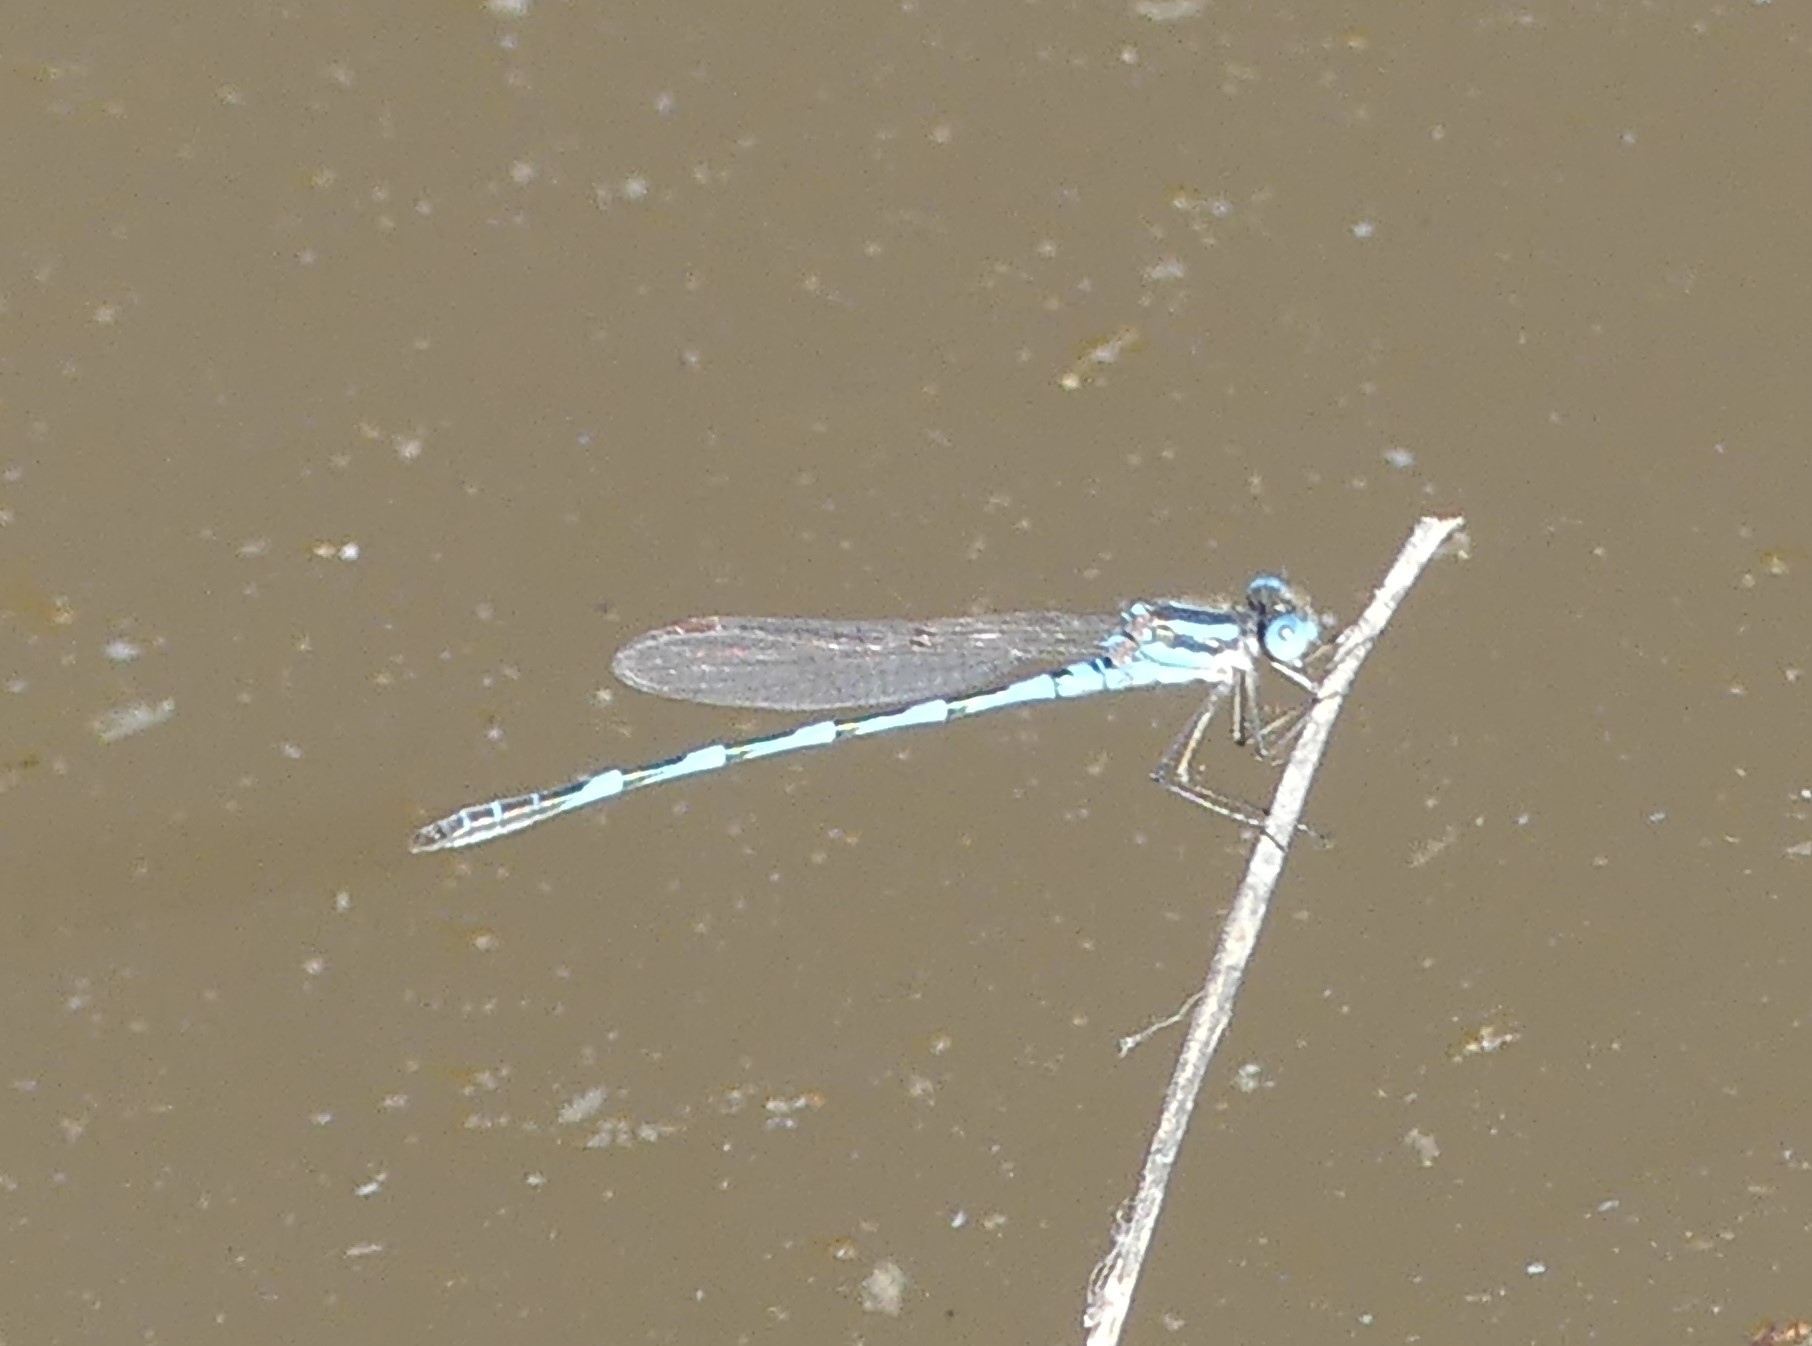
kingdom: Animalia
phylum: Arthropoda
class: Insecta
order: Odonata
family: Lestidae
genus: Austrolestes
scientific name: Austrolestes annulosus
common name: Blue ringtail
